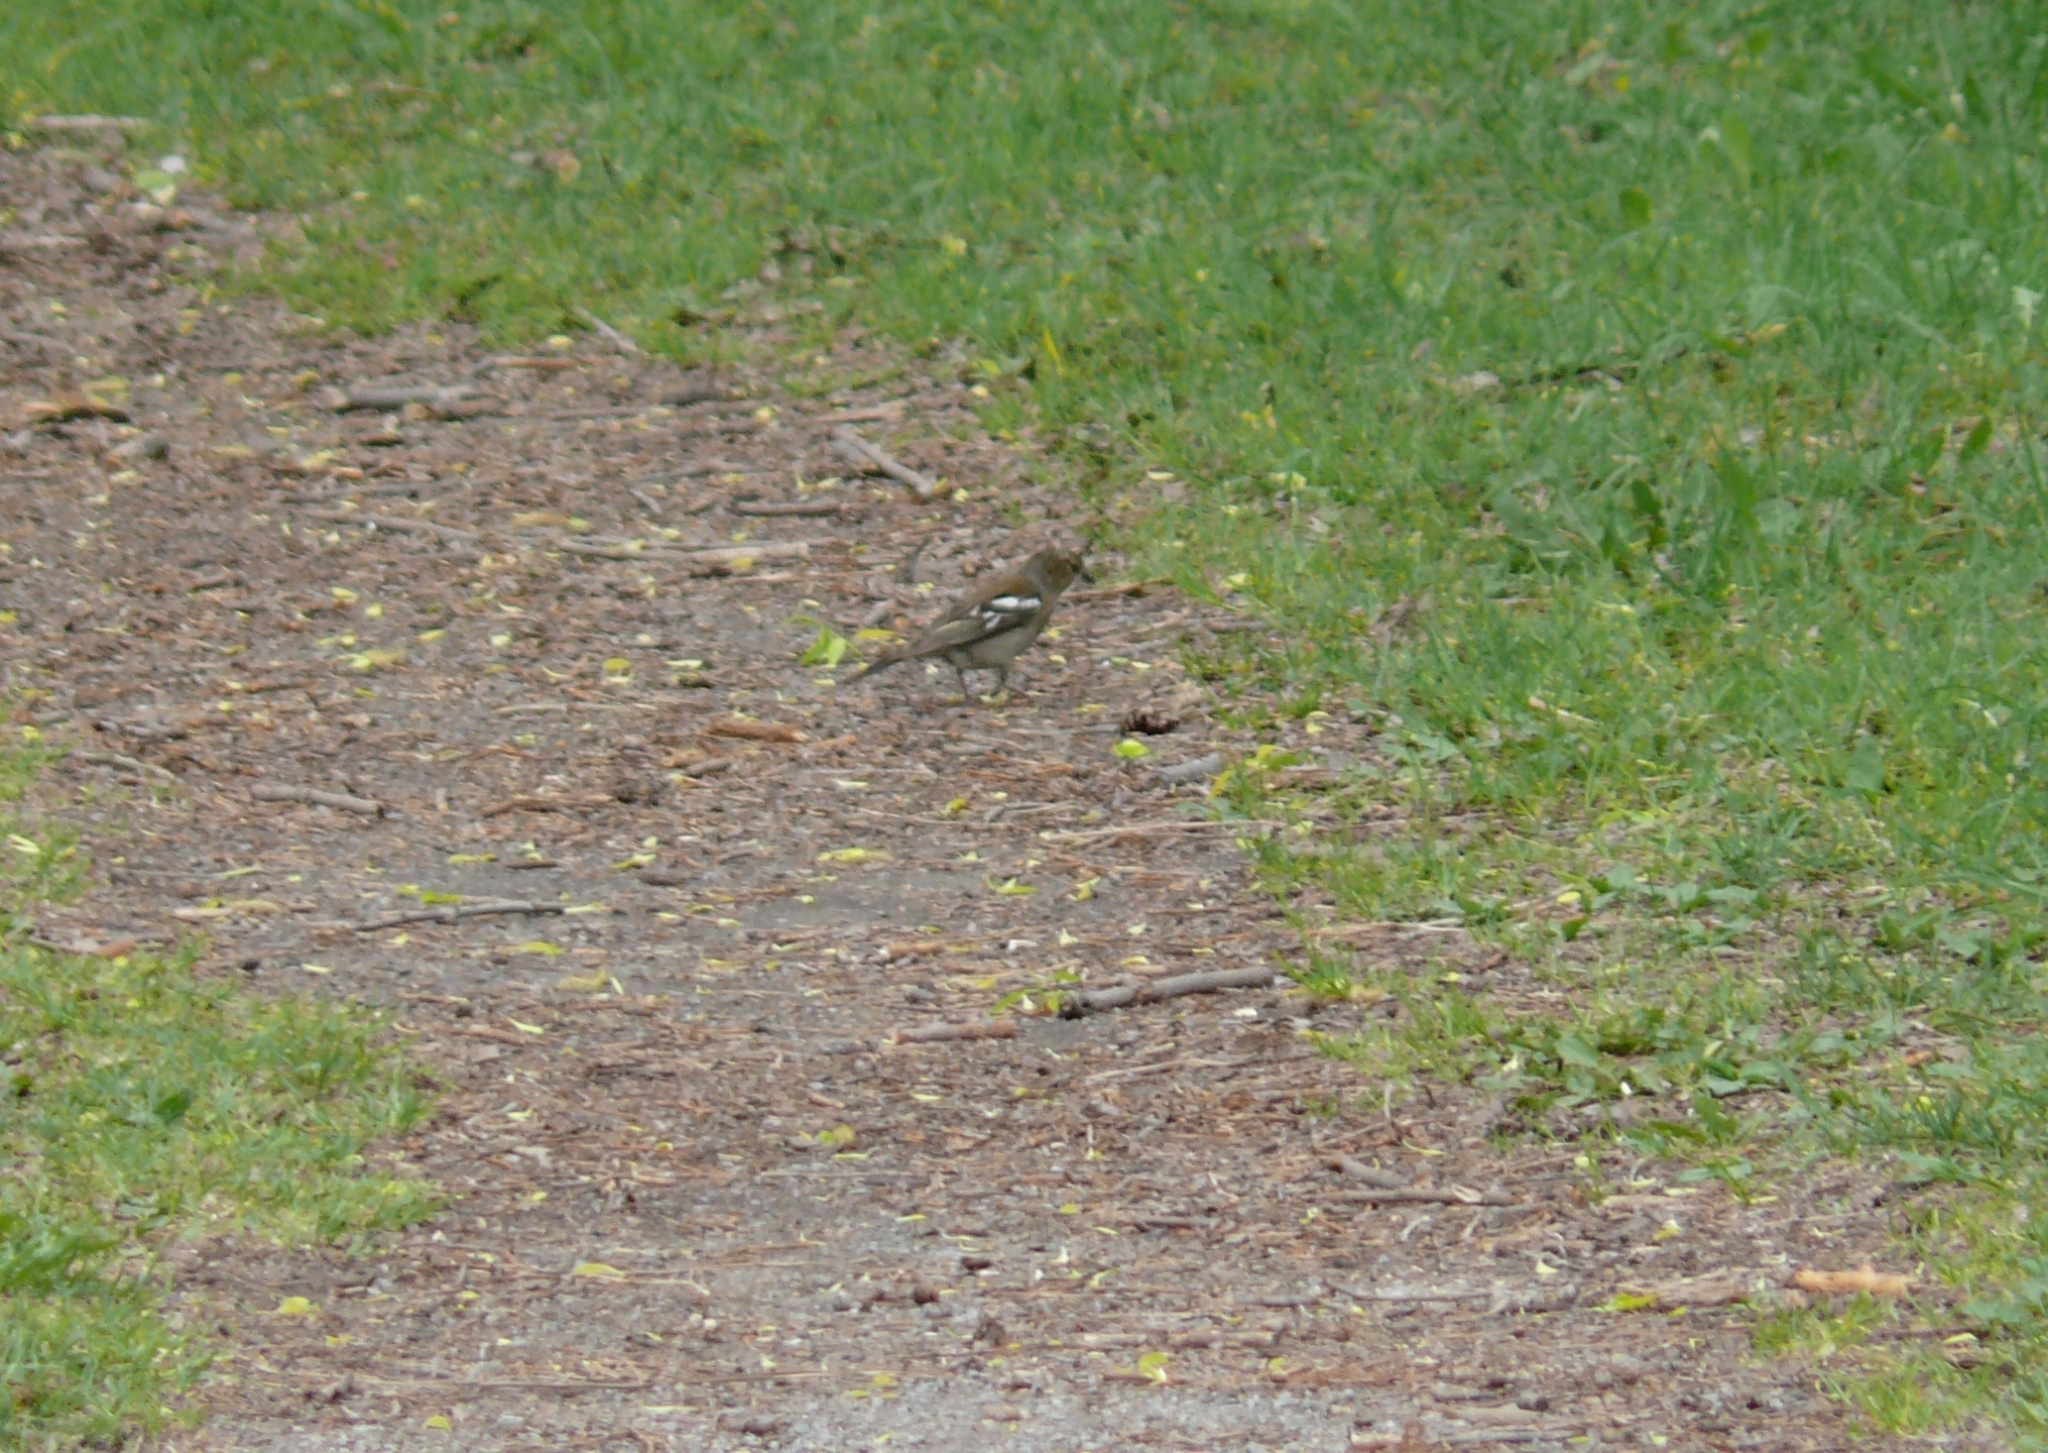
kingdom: Animalia
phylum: Chordata
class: Aves
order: Passeriformes
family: Fringillidae
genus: Fringilla
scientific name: Fringilla coelebs
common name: Common chaffinch
